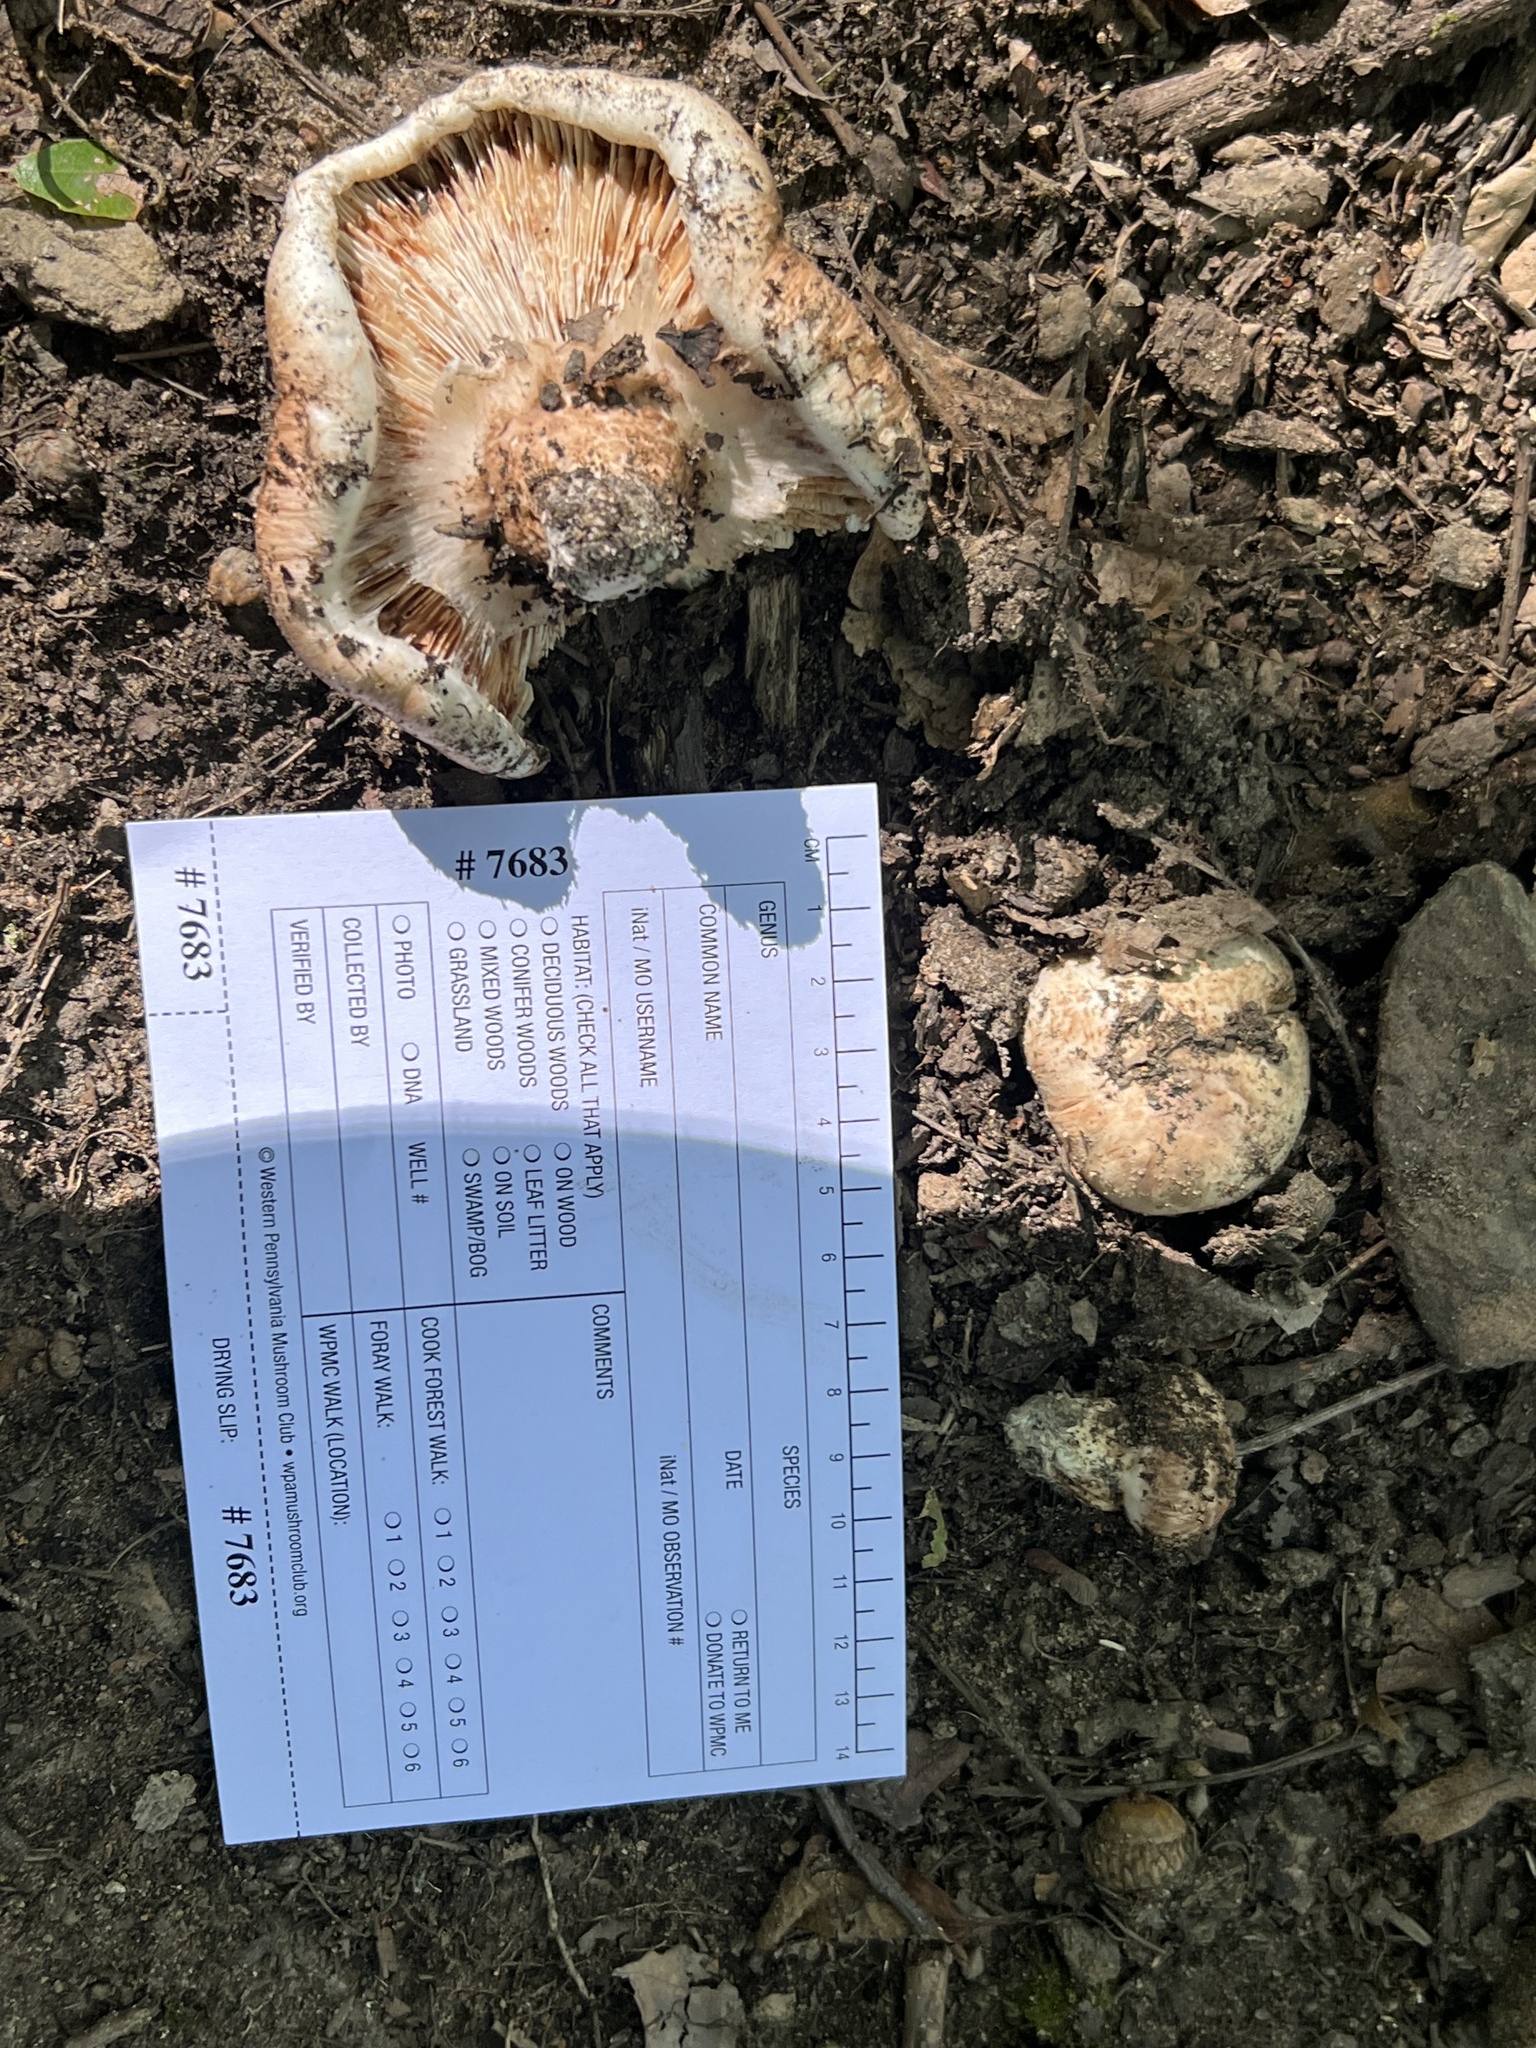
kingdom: Fungi
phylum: Basidiomycota
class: Agaricomycetes
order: Agaricales
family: Tricholomataceae
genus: Tricholoma
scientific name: Tricholoma caligatum
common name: True booted knight
